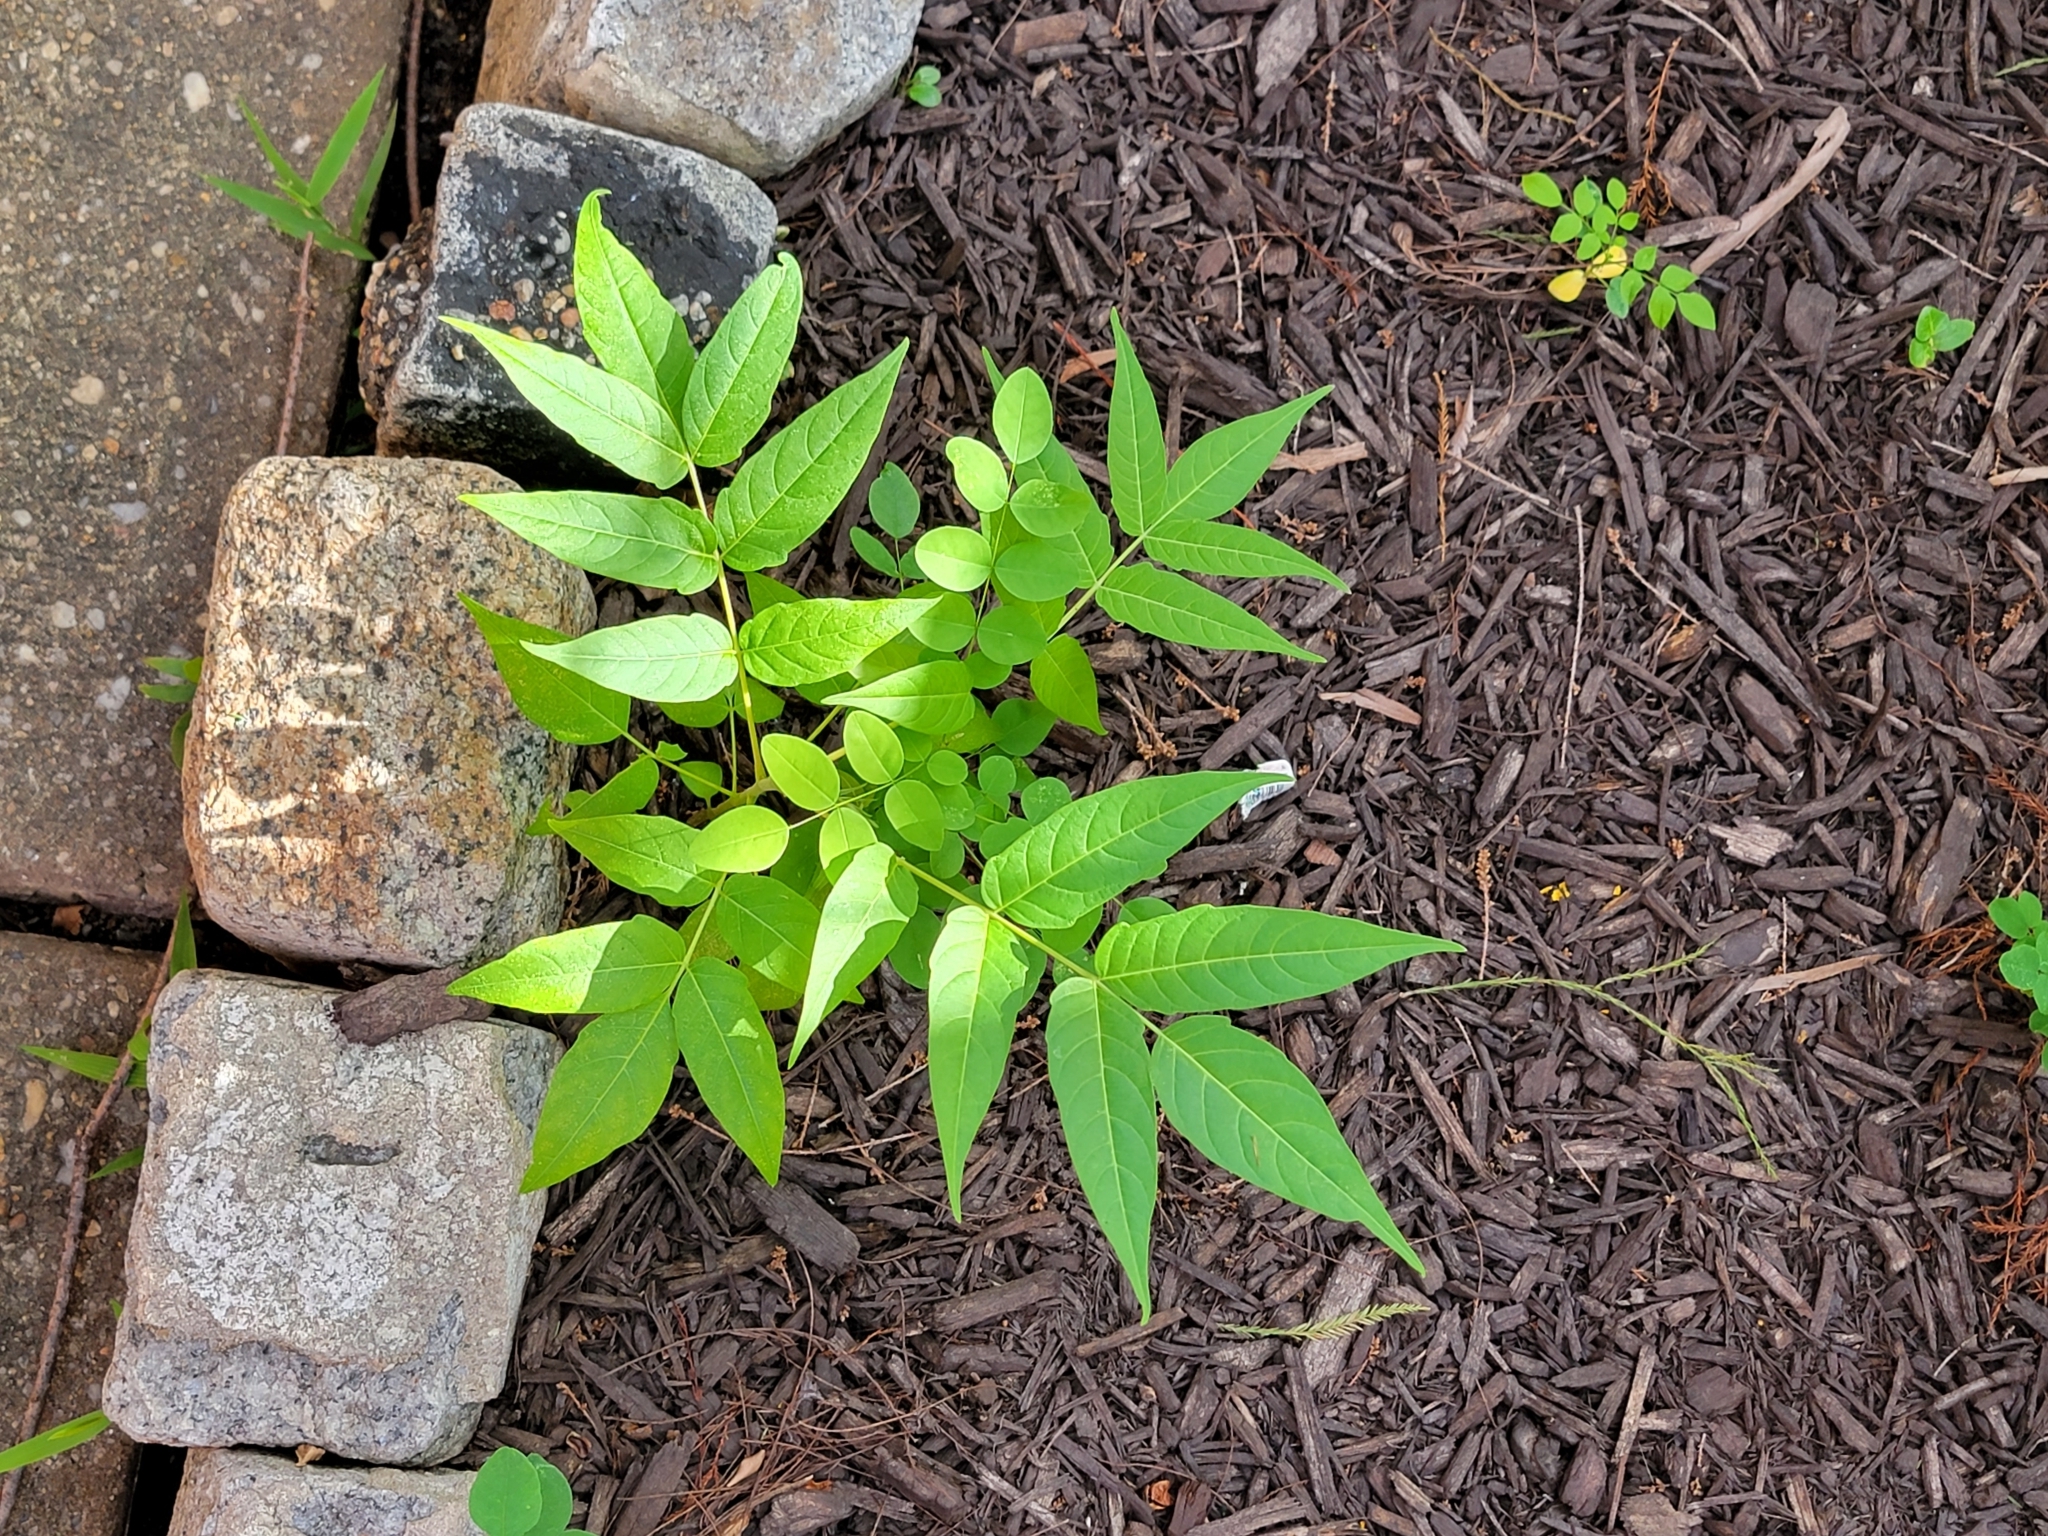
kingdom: Plantae
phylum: Tracheophyta
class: Magnoliopsida
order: Sapindales
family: Simaroubaceae
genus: Ailanthus
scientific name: Ailanthus altissima
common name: Tree-of-heaven
